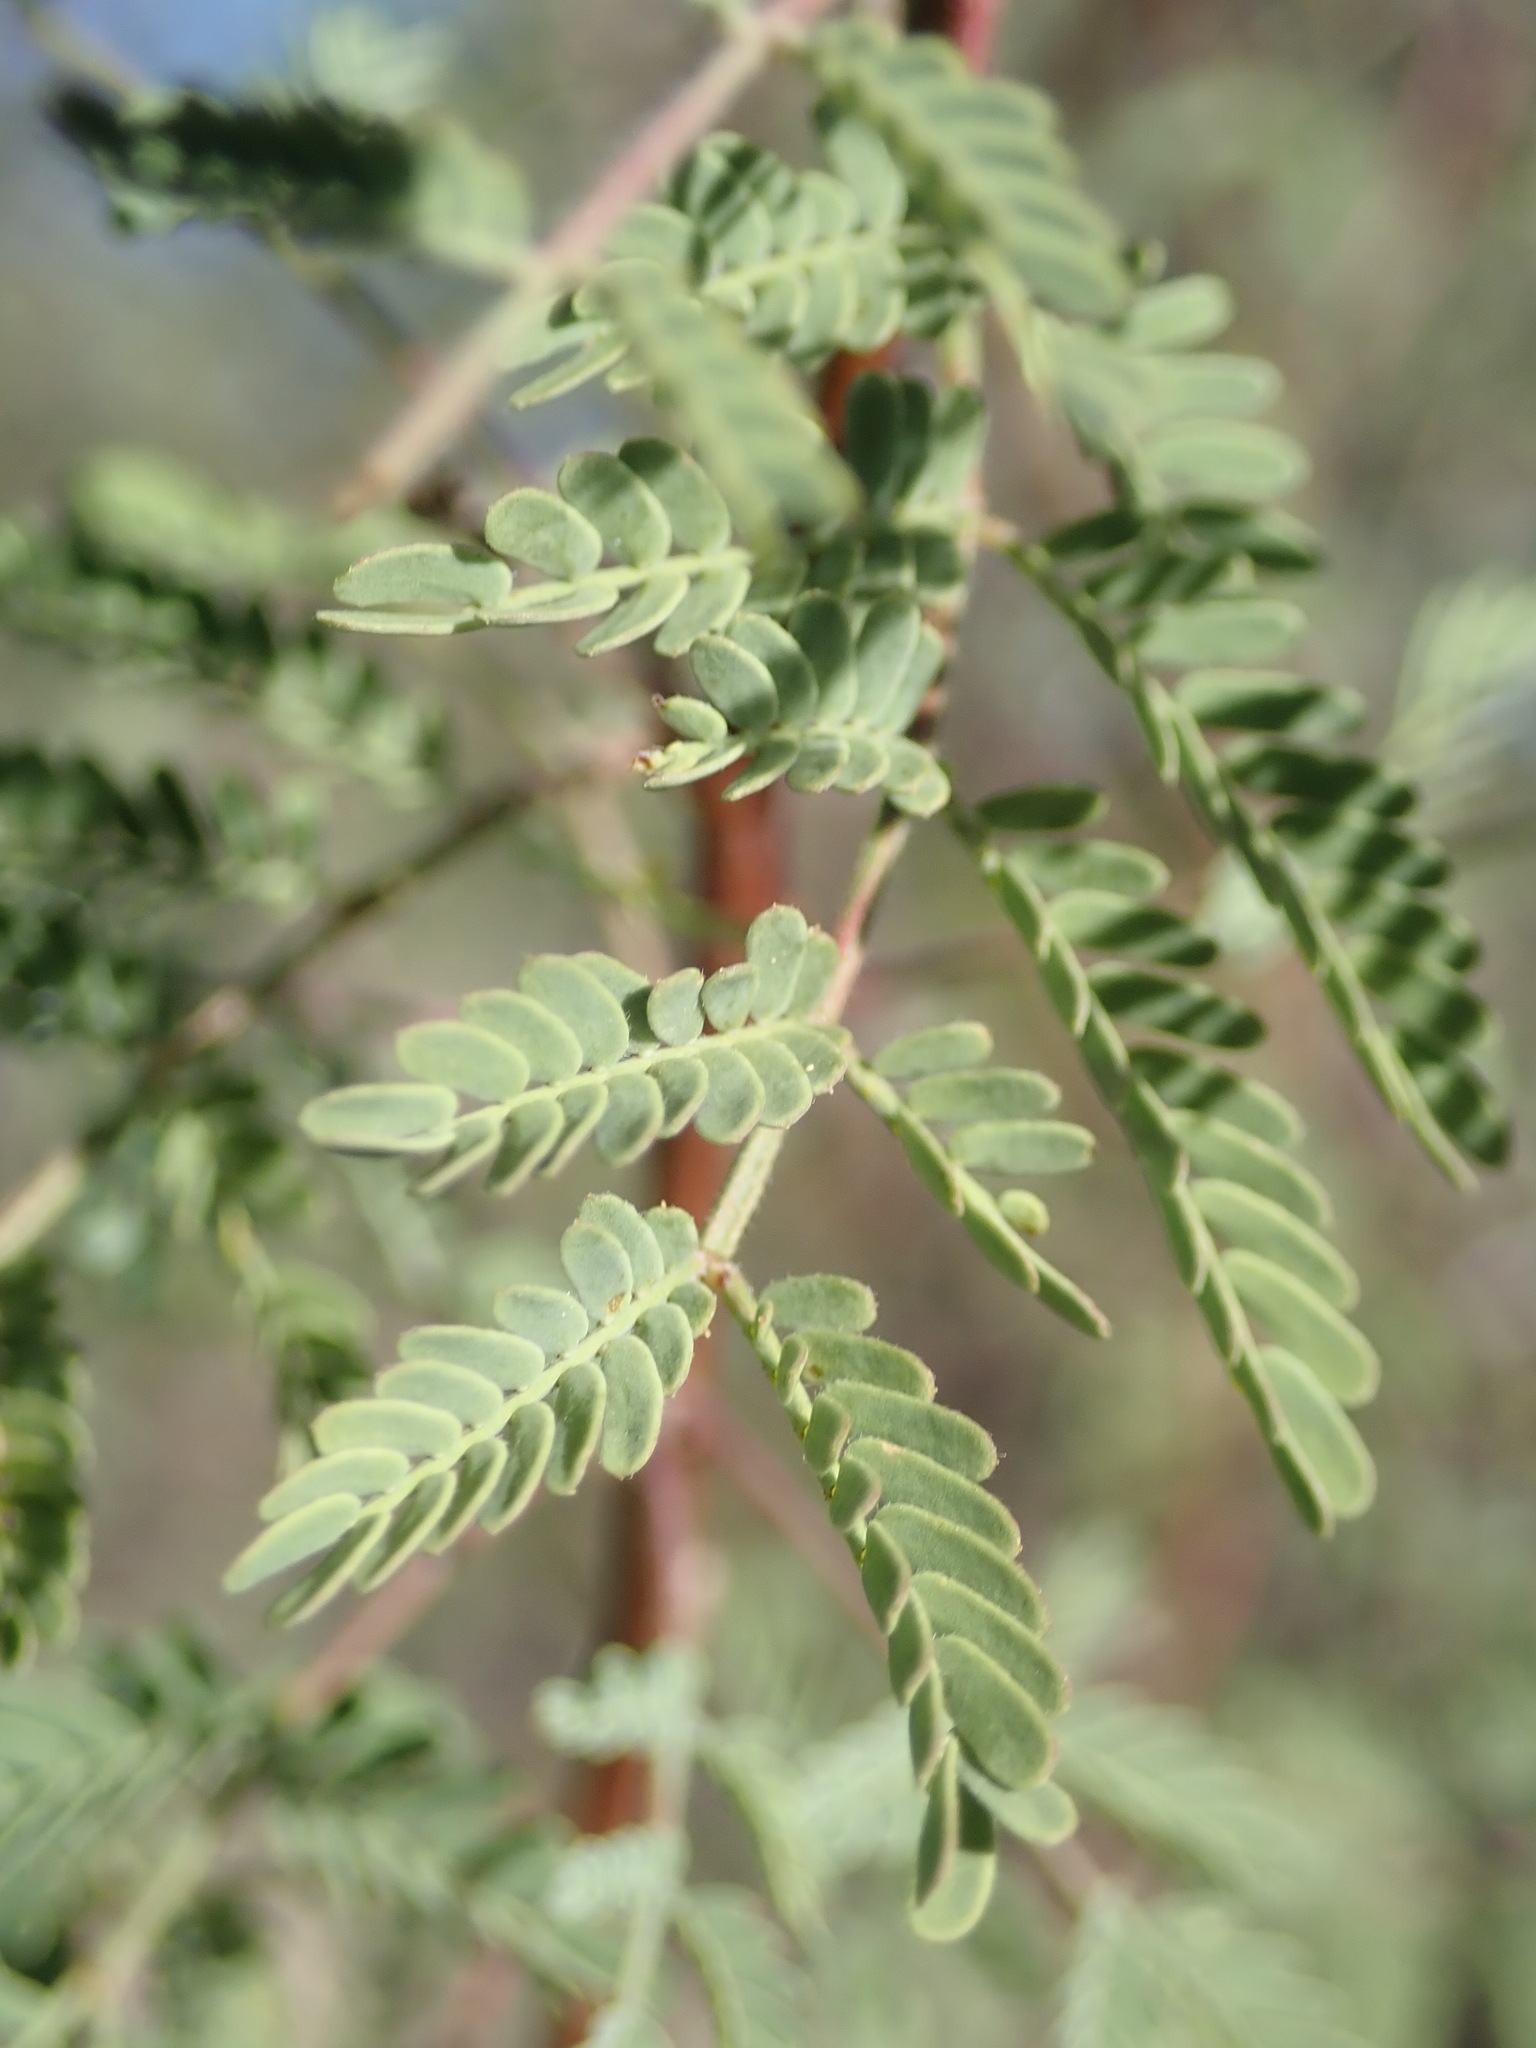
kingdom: Plantae
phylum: Tracheophyta
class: Magnoliopsida
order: Fabales
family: Fabaceae
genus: Senegalia
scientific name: Senegalia greggii
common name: Texas-mimosa
